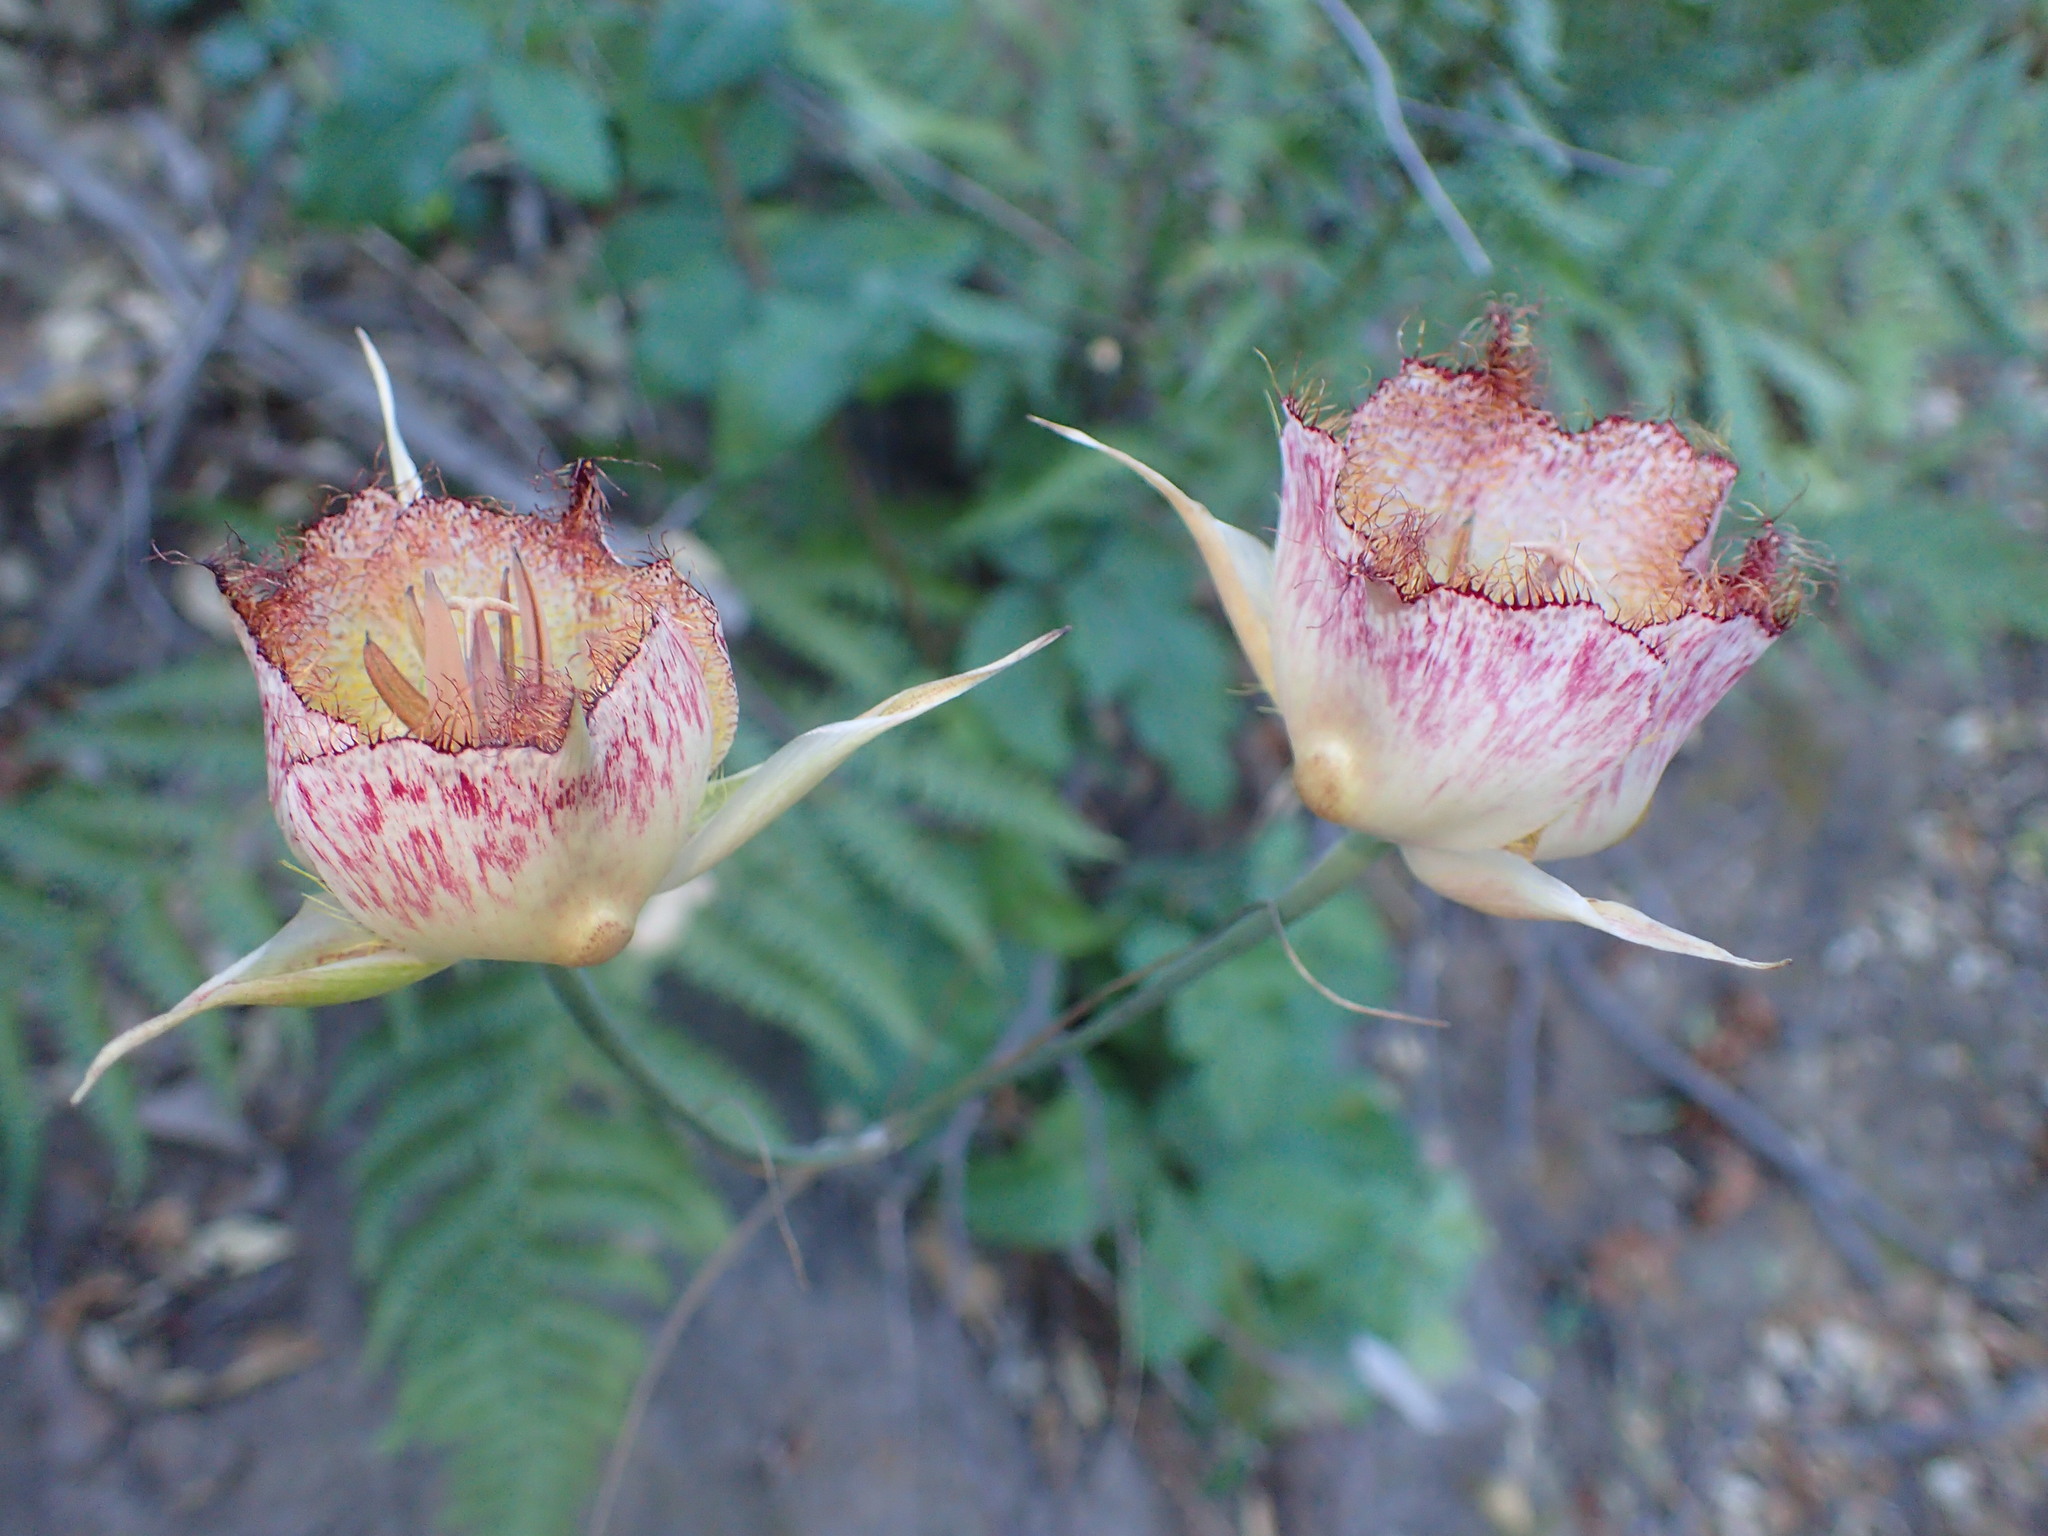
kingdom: Plantae
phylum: Tracheophyta
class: Liliopsida
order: Liliales
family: Liliaceae
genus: Calochortus
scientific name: Calochortus fimbriatus
